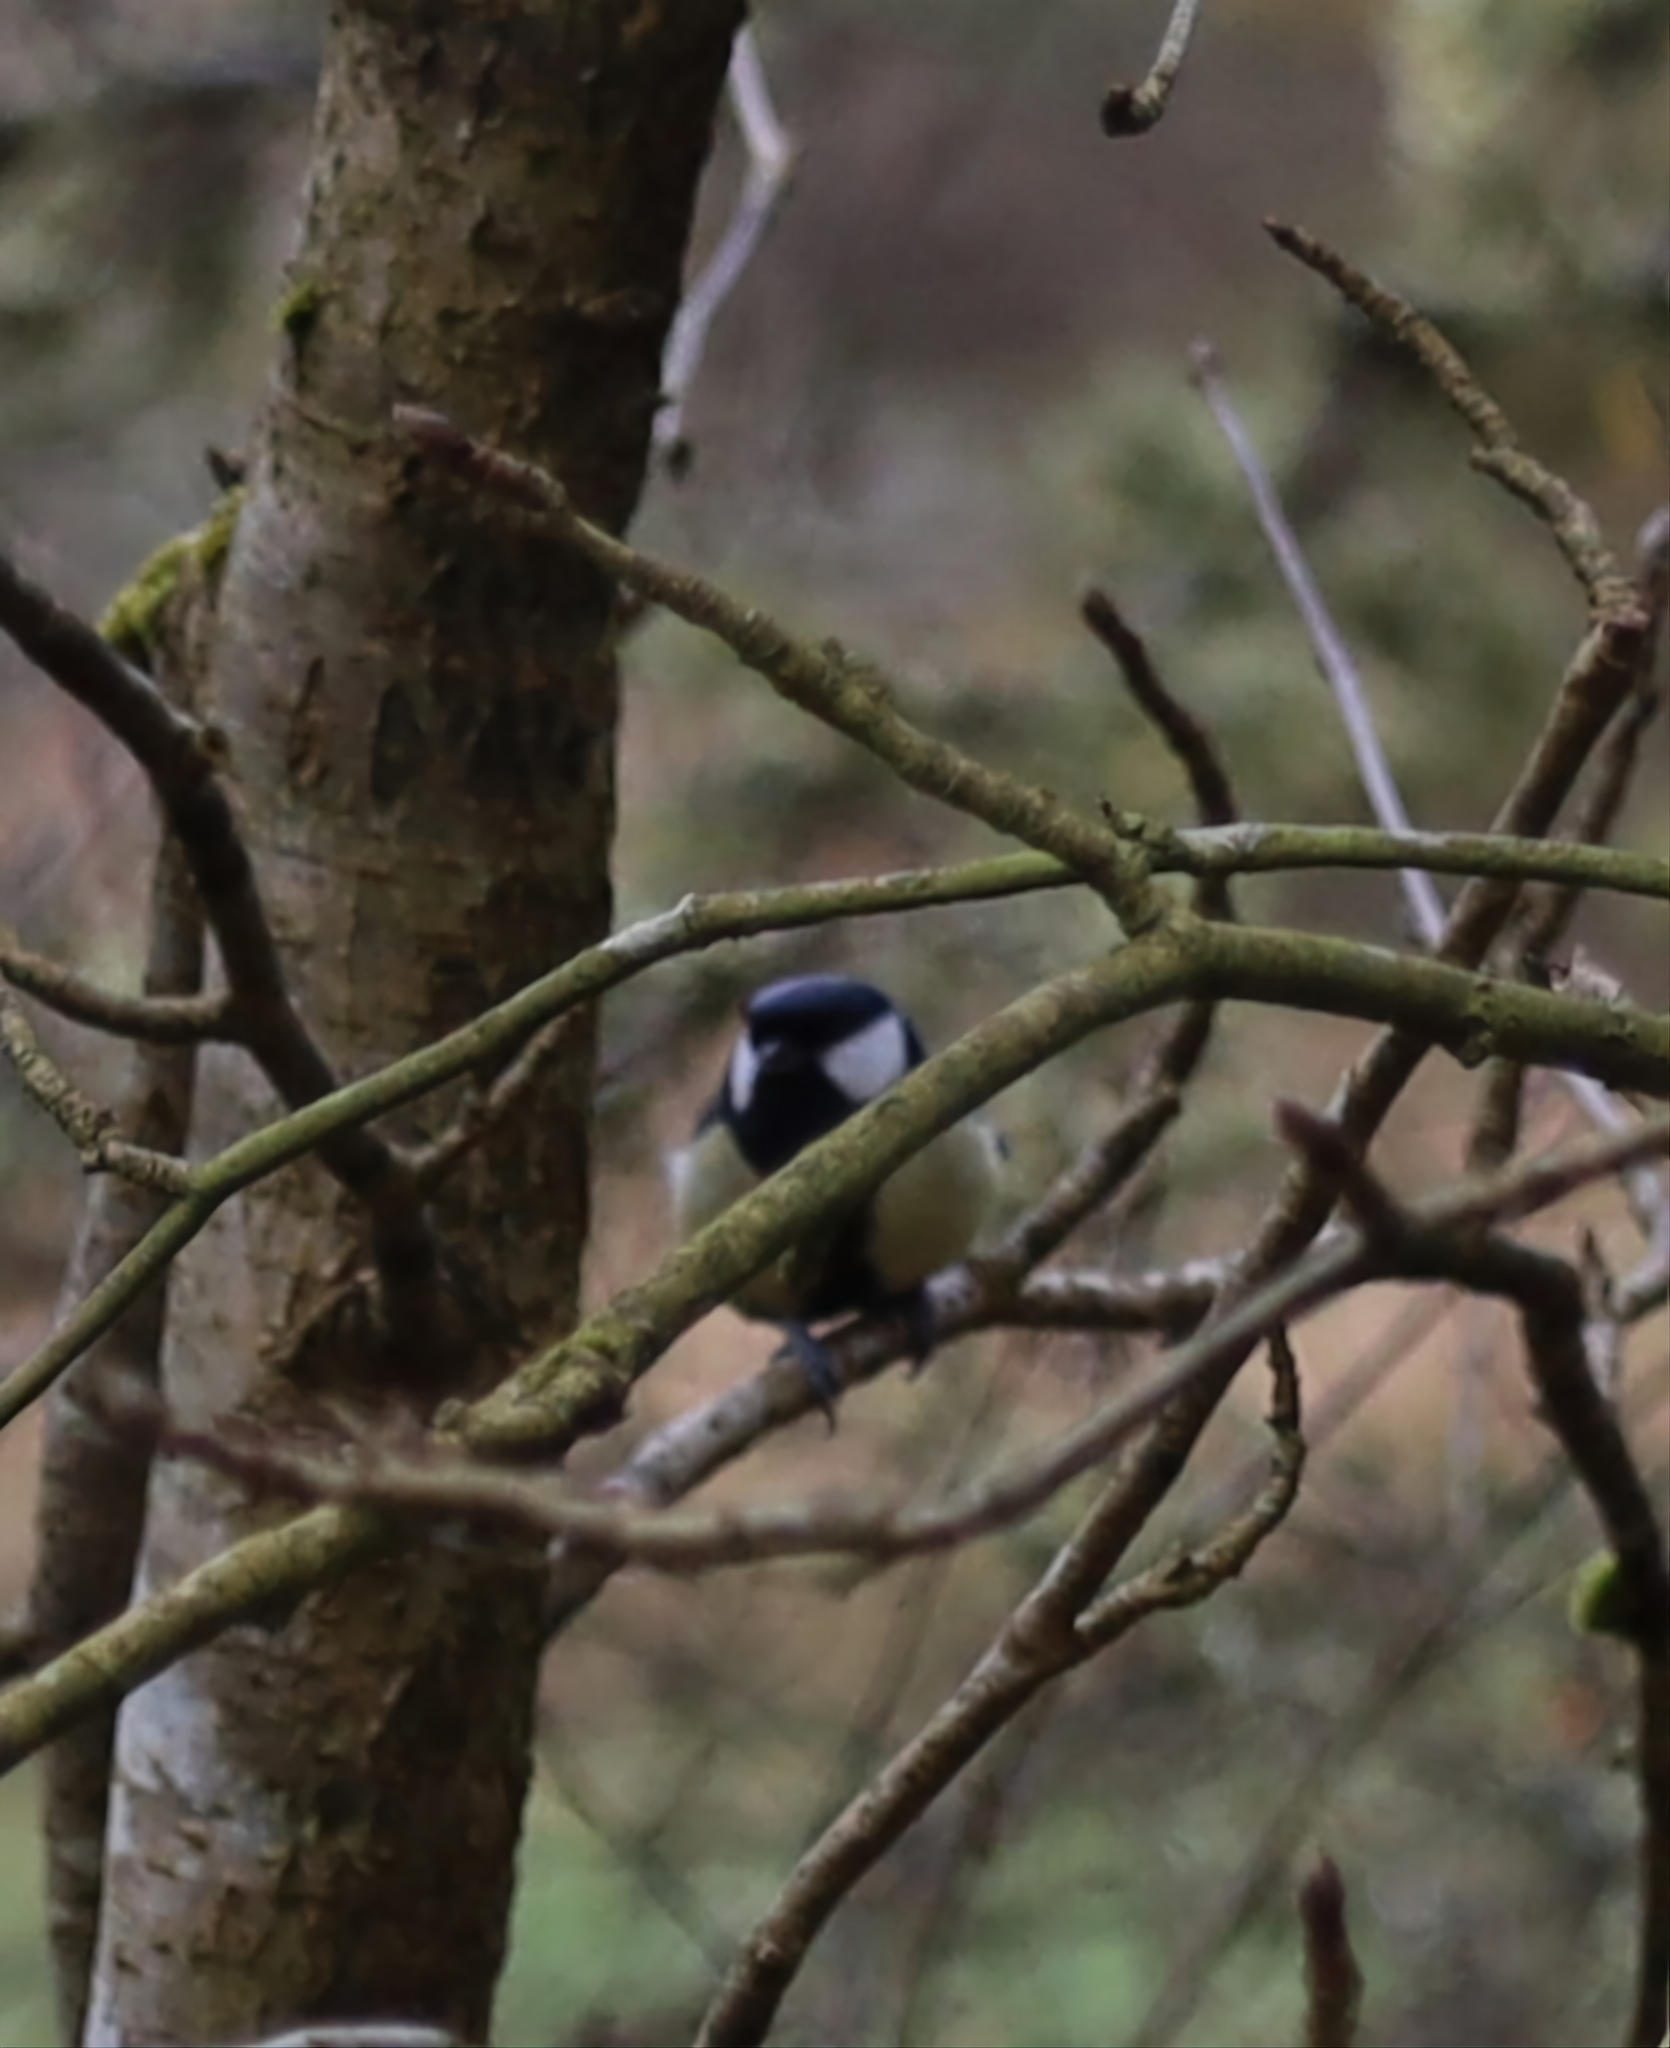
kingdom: Animalia
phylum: Chordata
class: Aves
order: Passeriformes
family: Paridae
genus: Parus
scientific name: Parus major
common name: Great tit
